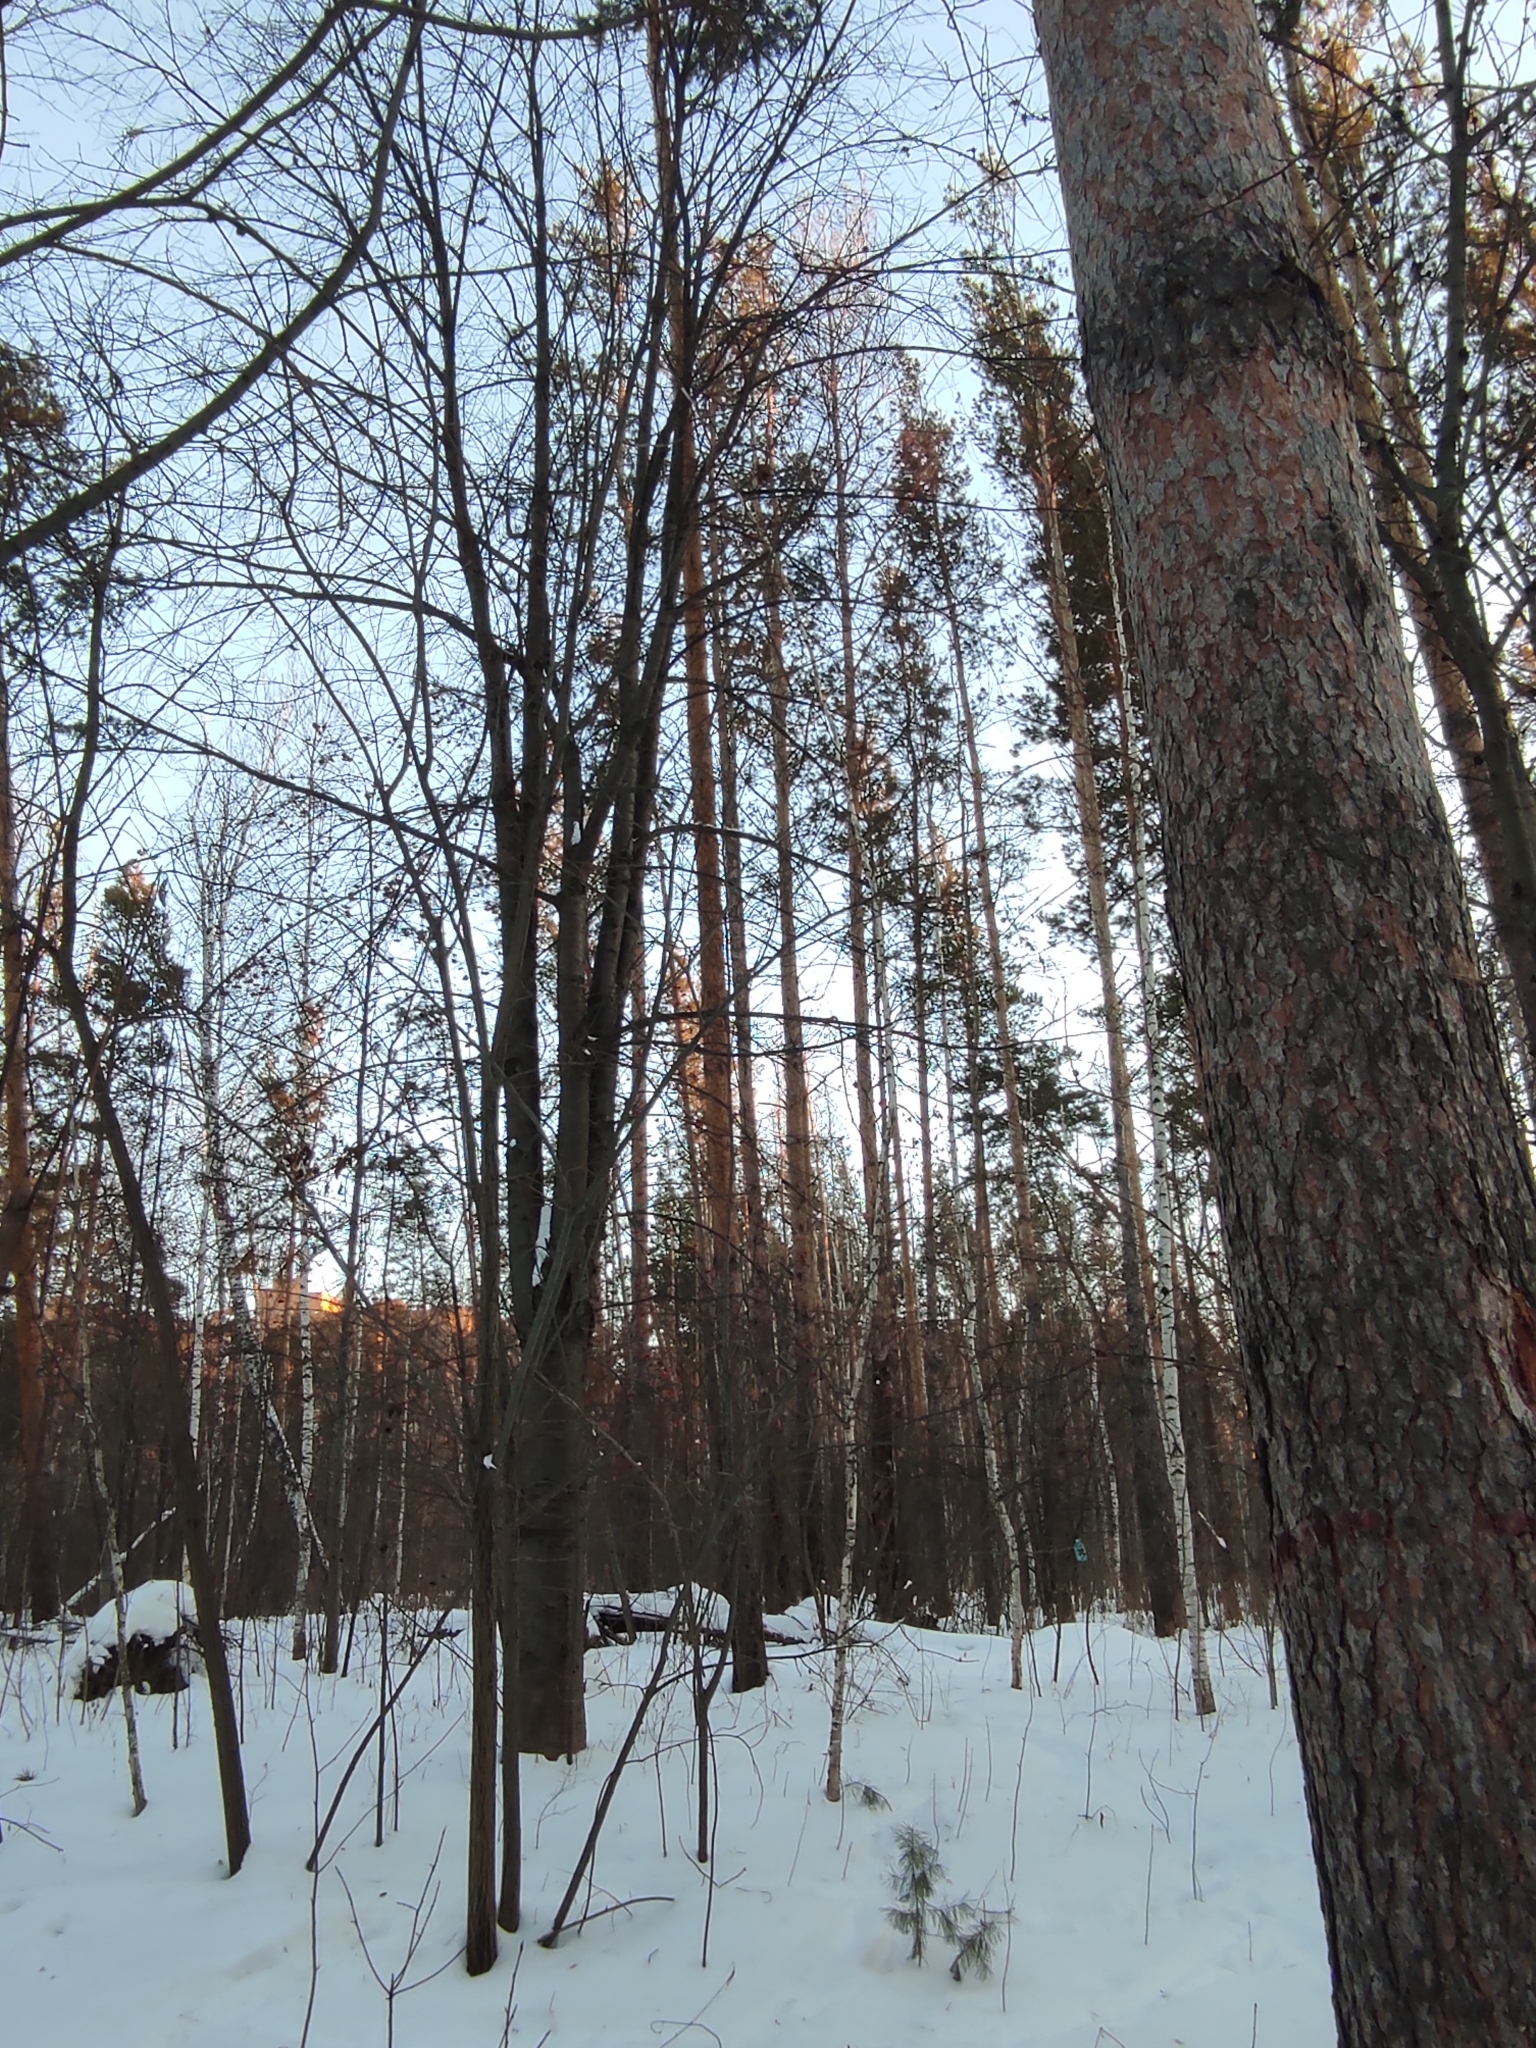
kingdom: Plantae
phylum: Tracheophyta
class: Pinopsida
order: Pinales
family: Pinaceae
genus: Pinus
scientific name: Pinus sylvestris
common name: Scots pine
